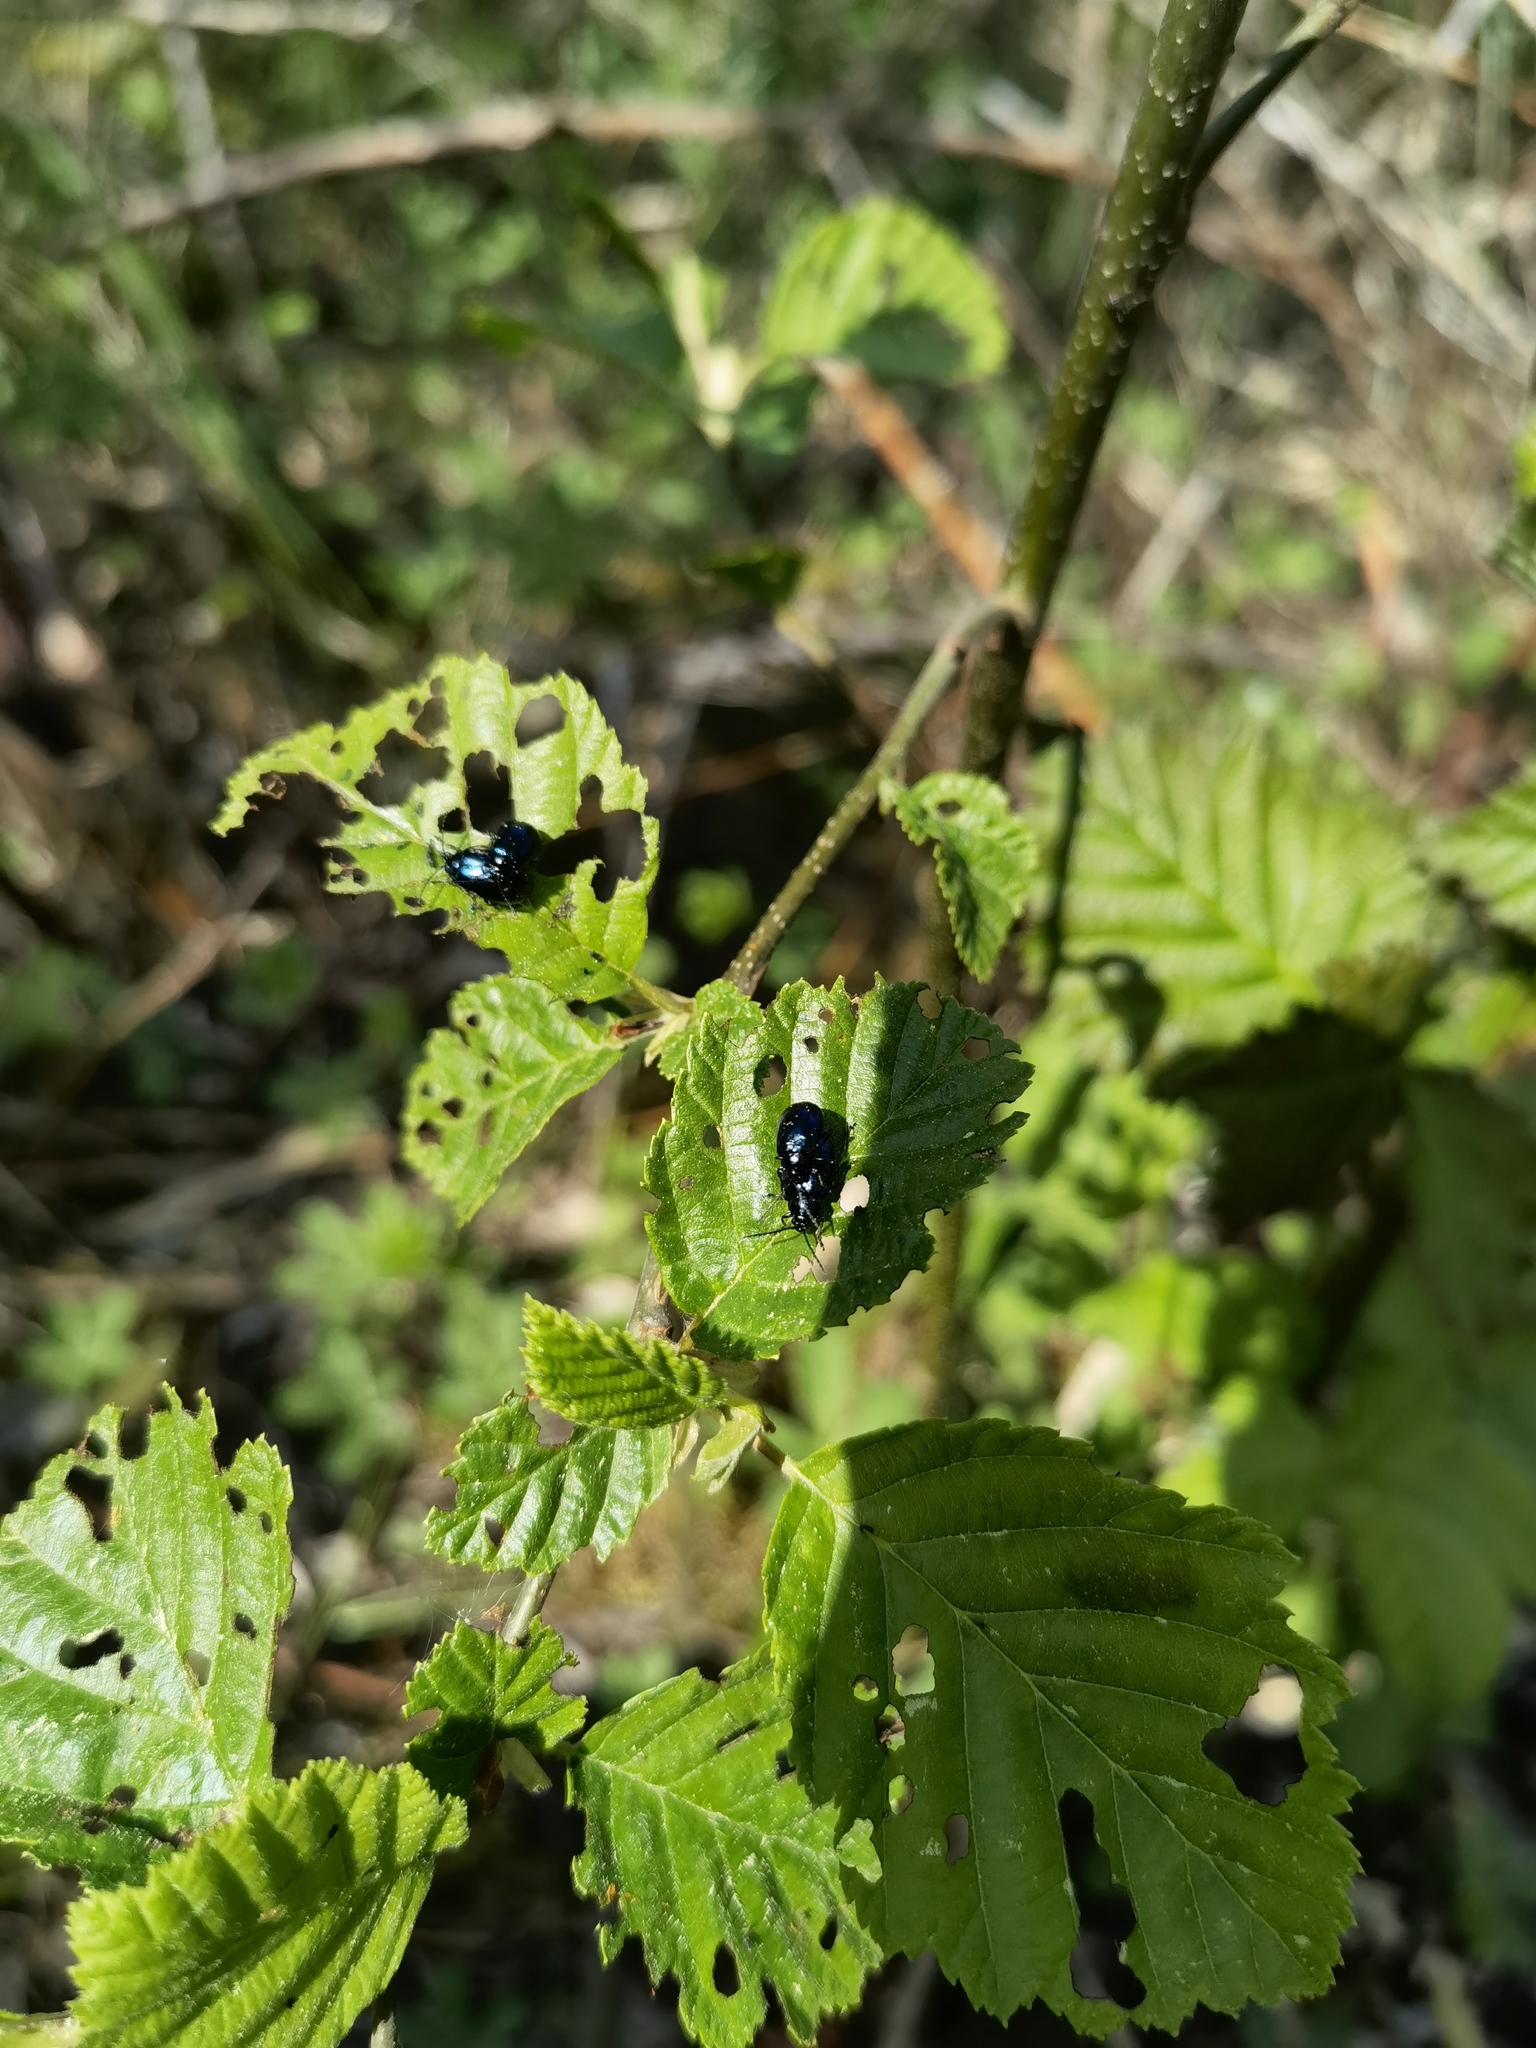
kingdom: Animalia
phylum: Arthropoda
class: Insecta
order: Coleoptera
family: Chrysomelidae
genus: Agelastica
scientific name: Agelastica alni
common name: Alder leaf beetle
